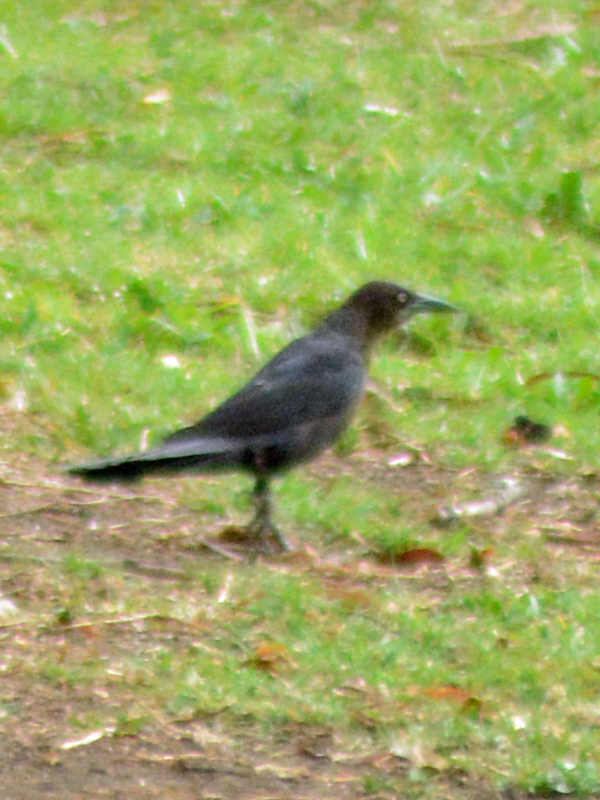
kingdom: Animalia
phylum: Chordata
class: Aves
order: Passeriformes
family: Icteridae
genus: Quiscalus
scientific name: Quiscalus mexicanus
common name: Great-tailed grackle
